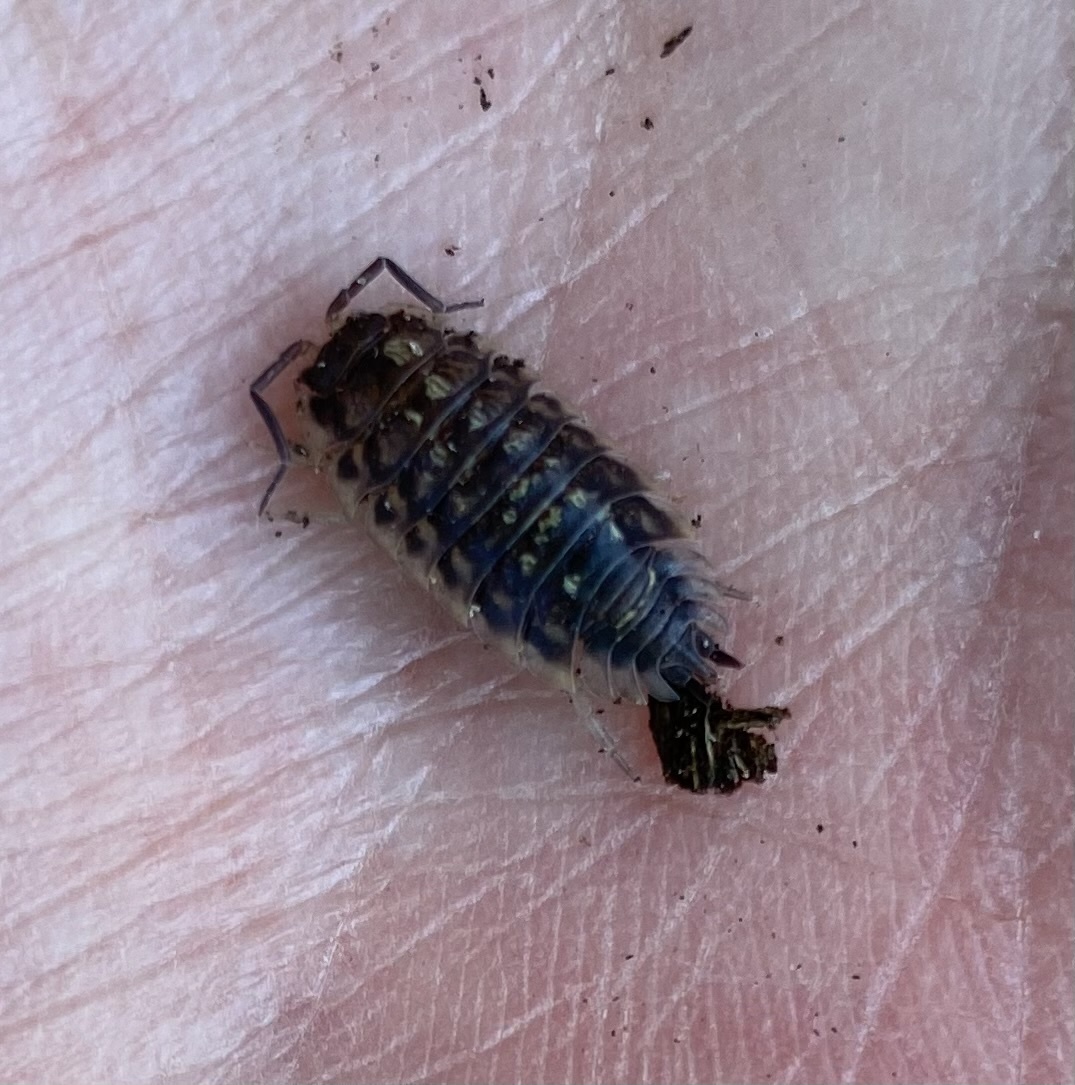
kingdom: Animalia
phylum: Arthropoda
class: Malacostraca
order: Isopoda
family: Oniscidae
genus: Oniscus
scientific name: Oniscus asellus
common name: Common shiny woodlouse
